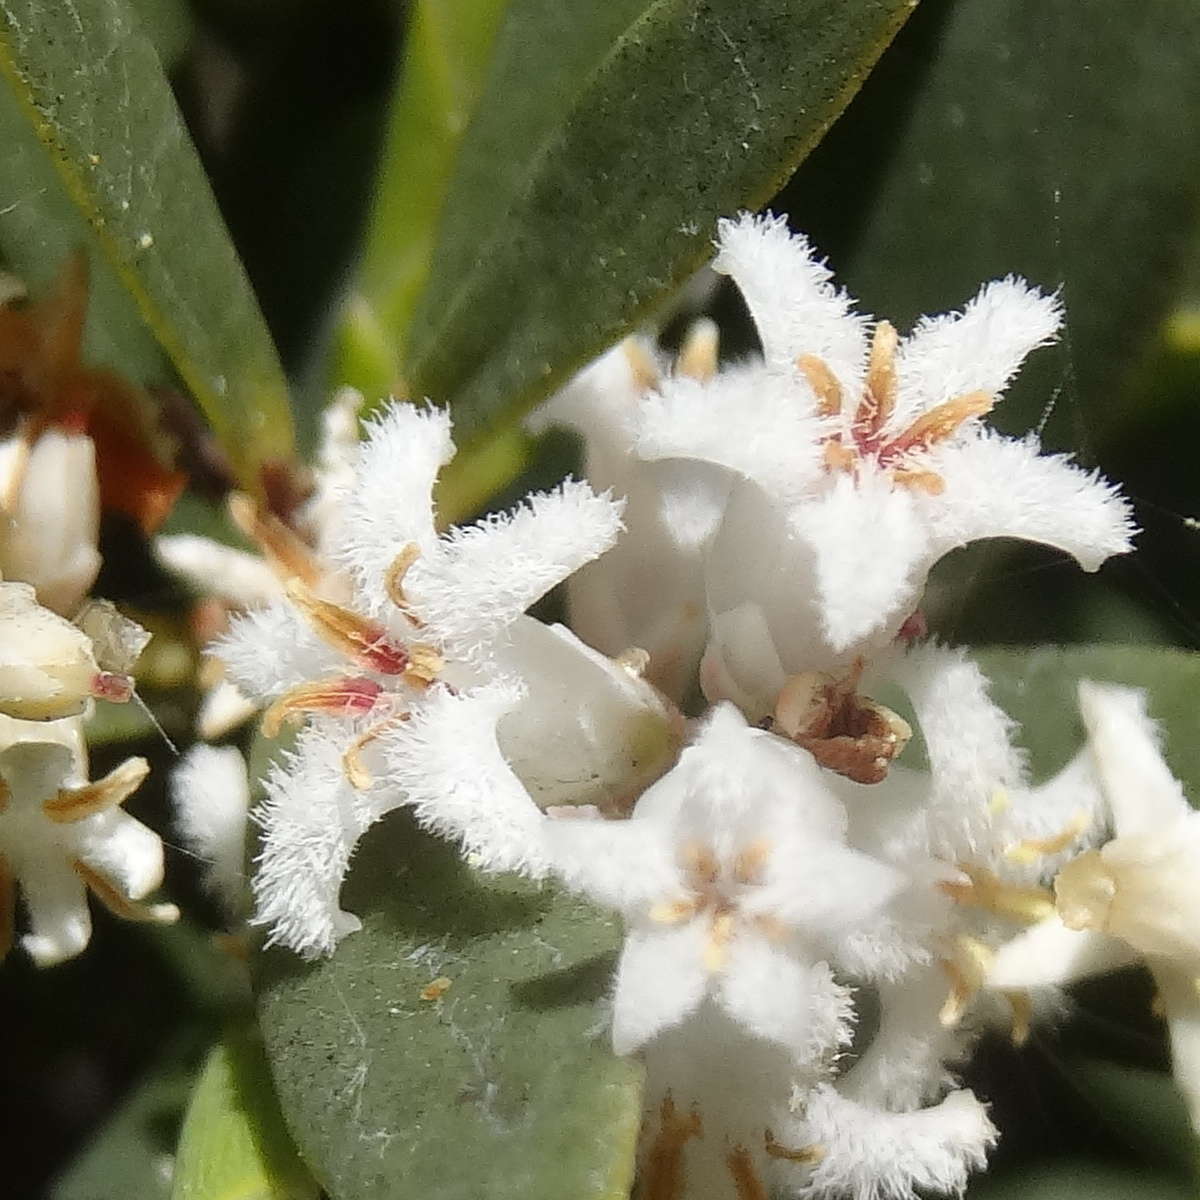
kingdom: Plantae
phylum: Tracheophyta
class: Magnoliopsida
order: Ericales
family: Ericaceae
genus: Leptecophylla
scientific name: Leptecophylla parvifolia
